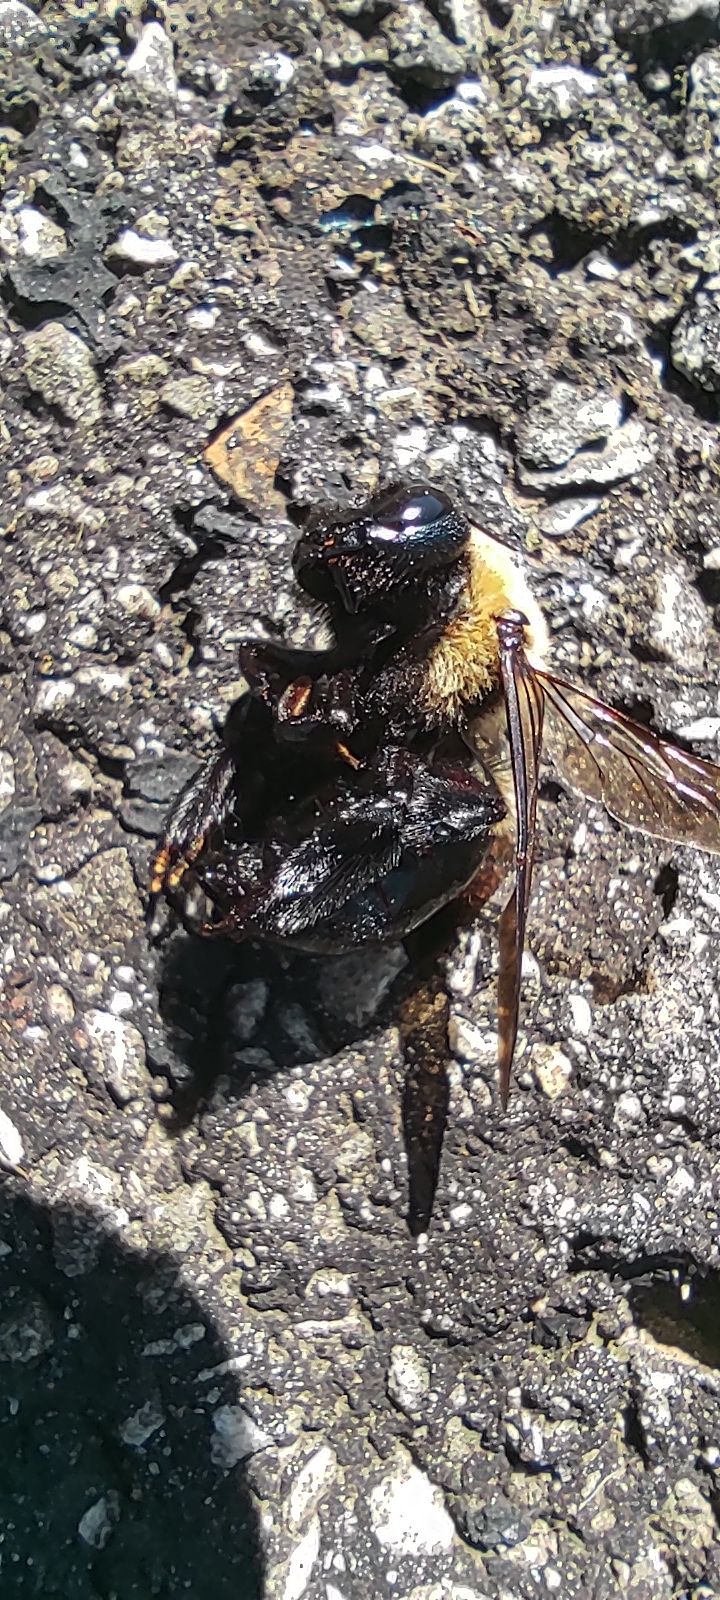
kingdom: Animalia
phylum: Arthropoda
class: Insecta
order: Hymenoptera
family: Apidae
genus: Xylocopa
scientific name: Xylocopa virginica
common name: Carpenter bee
